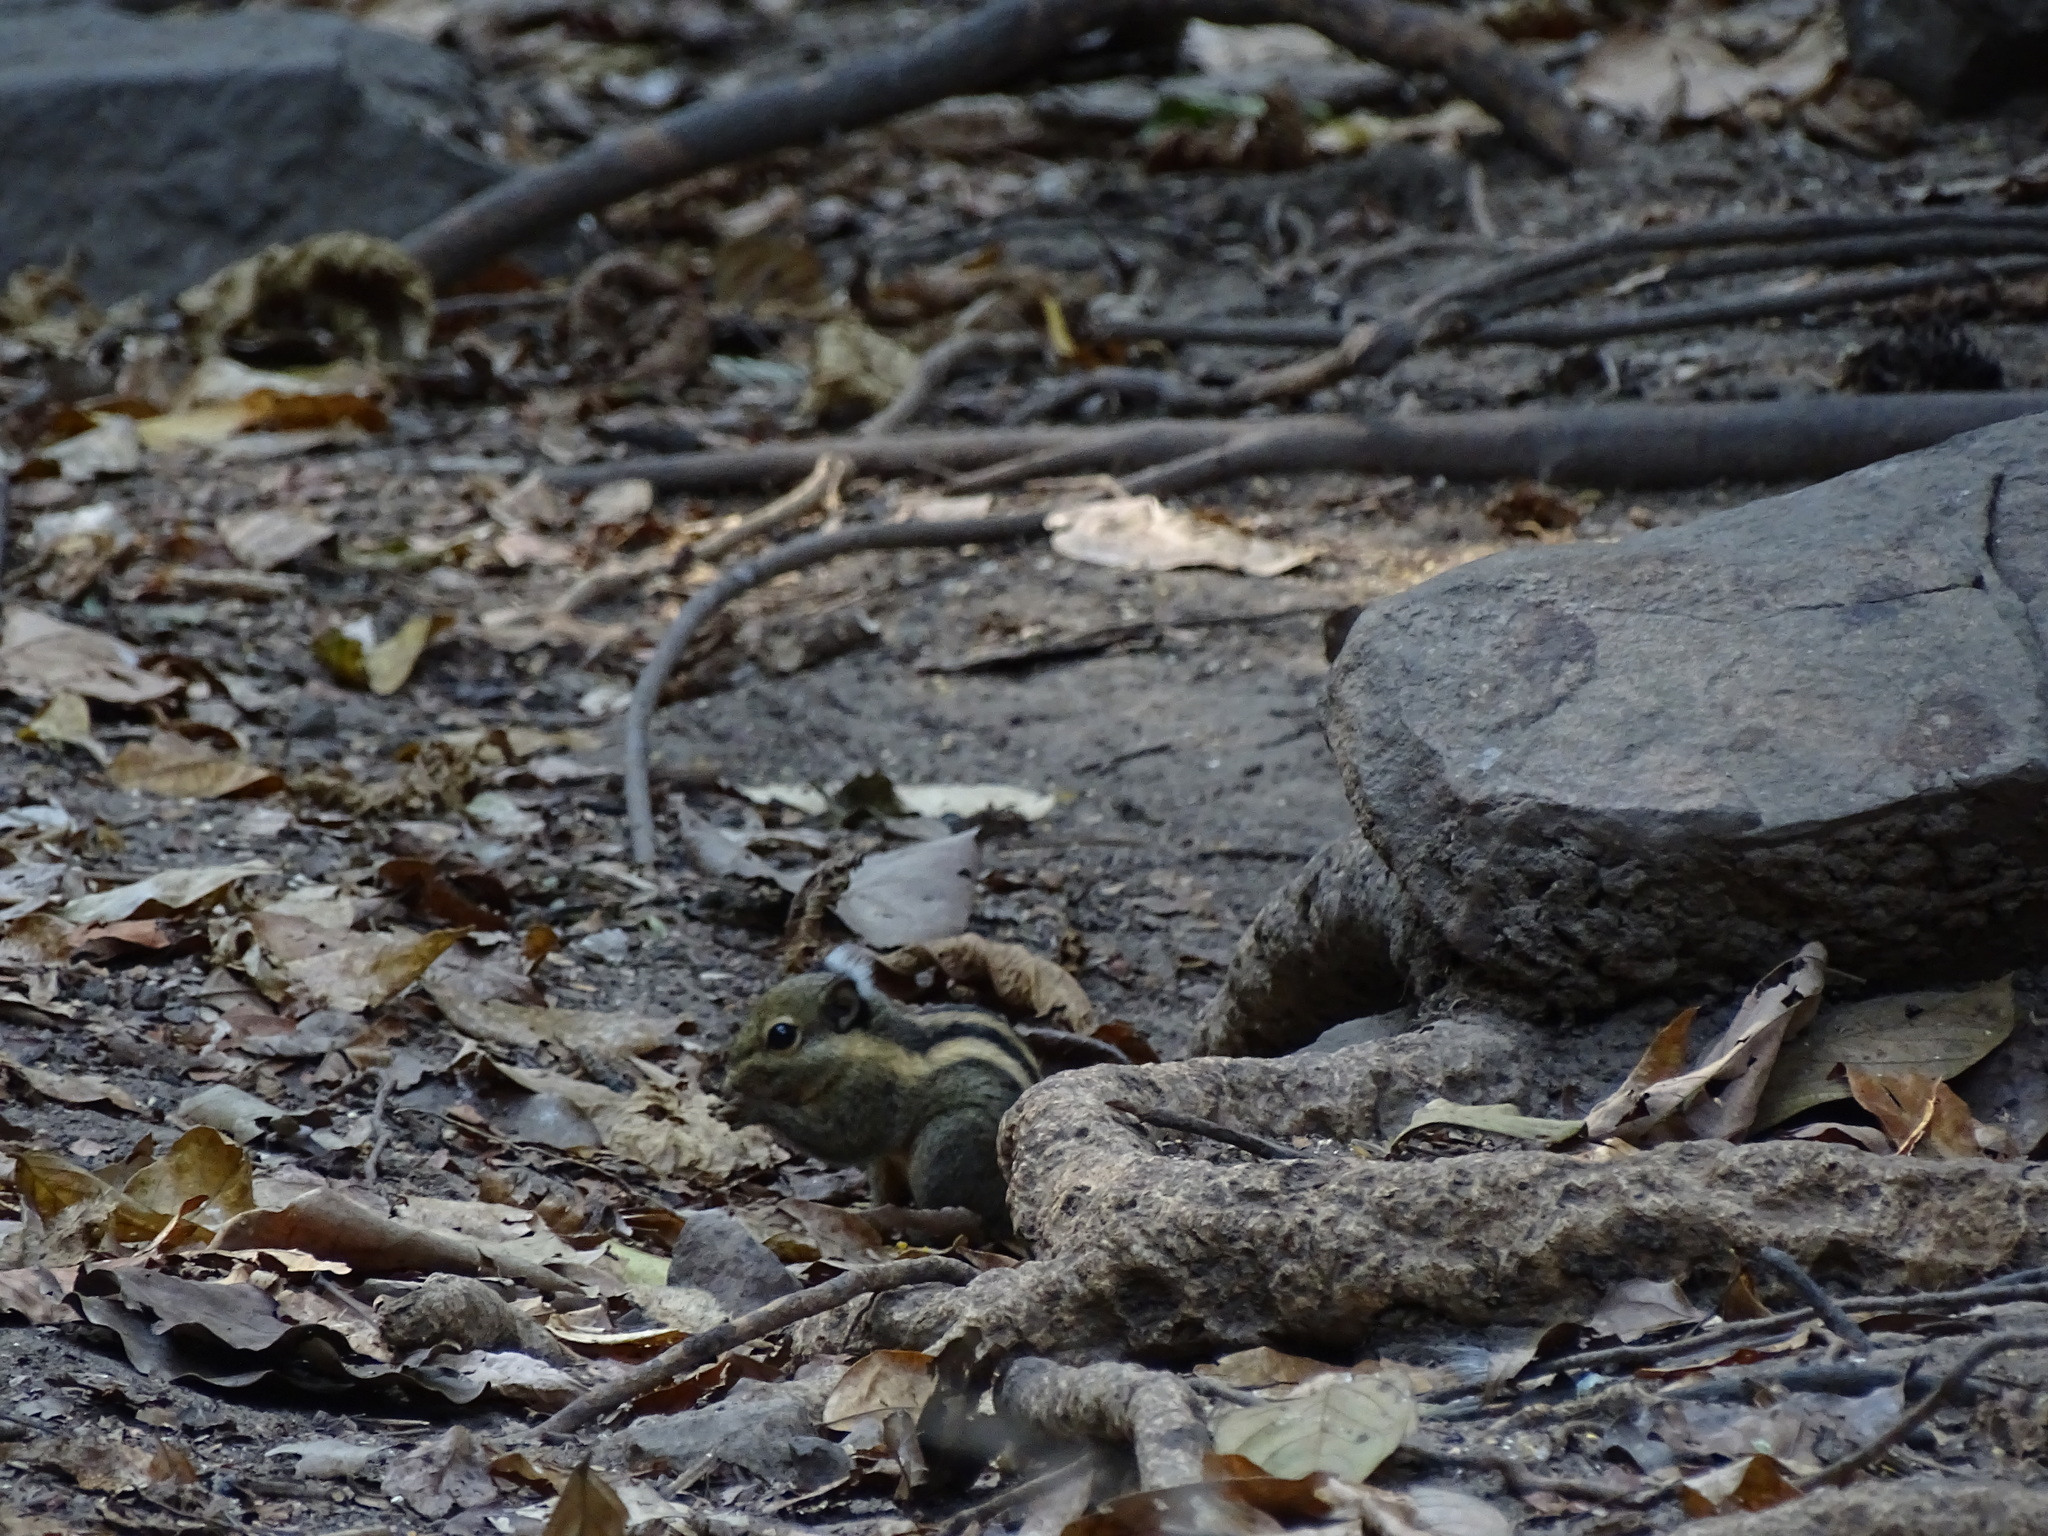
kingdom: Animalia
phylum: Chordata
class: Mammalia
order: Rodentia
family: Sciuridae
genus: Tamiops
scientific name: Tamiops mcclellandii
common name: Himalayan striped squirrel
